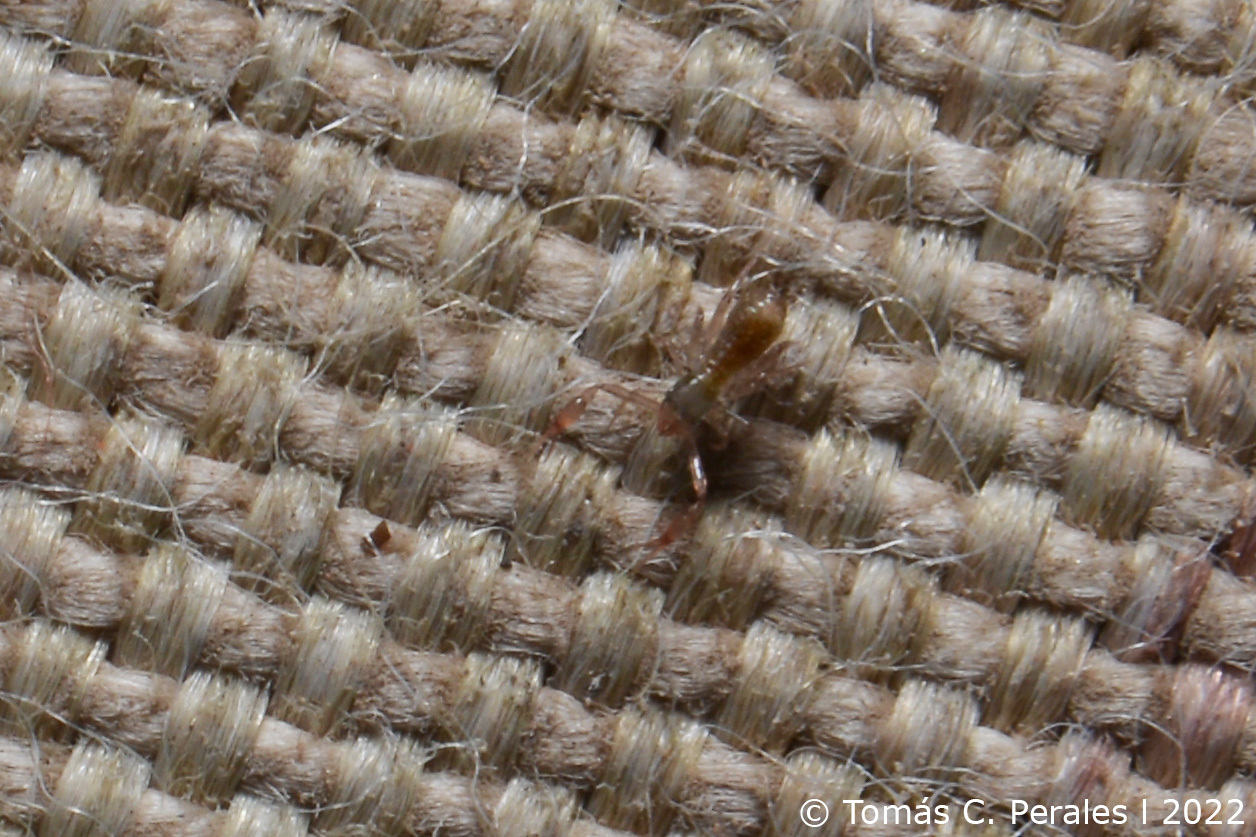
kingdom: Animalia
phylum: Arthropoda
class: Arachnida
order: Pseudoscorpiones
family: Chthoniidae
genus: Ephippiochthonius
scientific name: Ephippiochthonius tetrachelatus
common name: Pseudoscorpion
